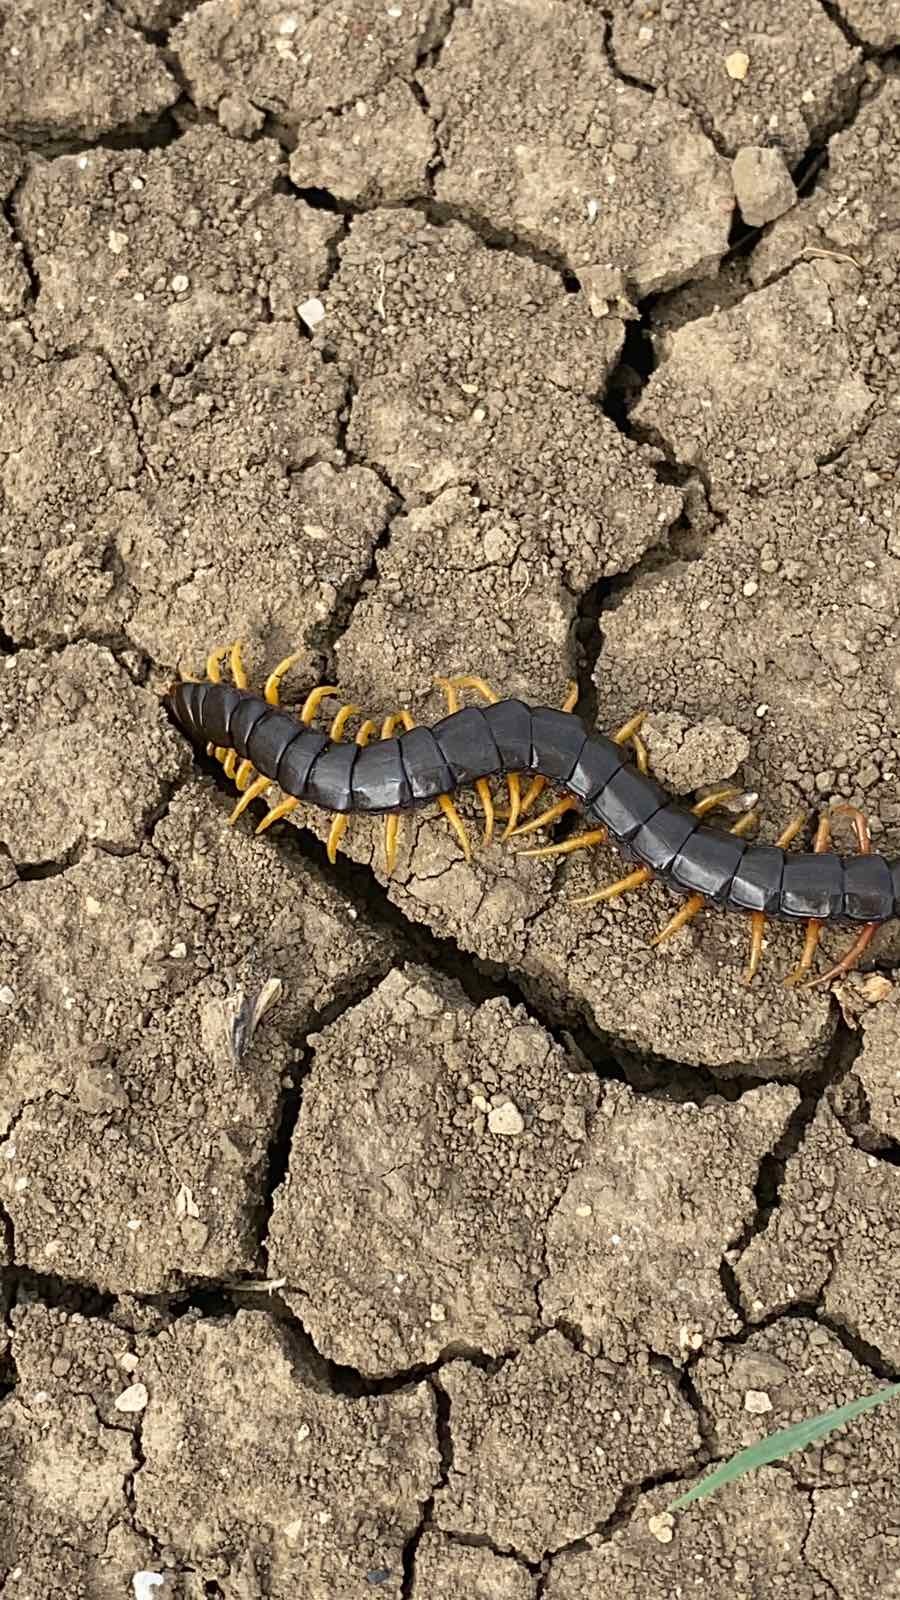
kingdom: Animalia
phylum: Arthropoda
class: Chilopoda
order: Scolopendromorpha
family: Scolopendridae
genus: Scolopendra
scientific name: Scolopendra cingulata
